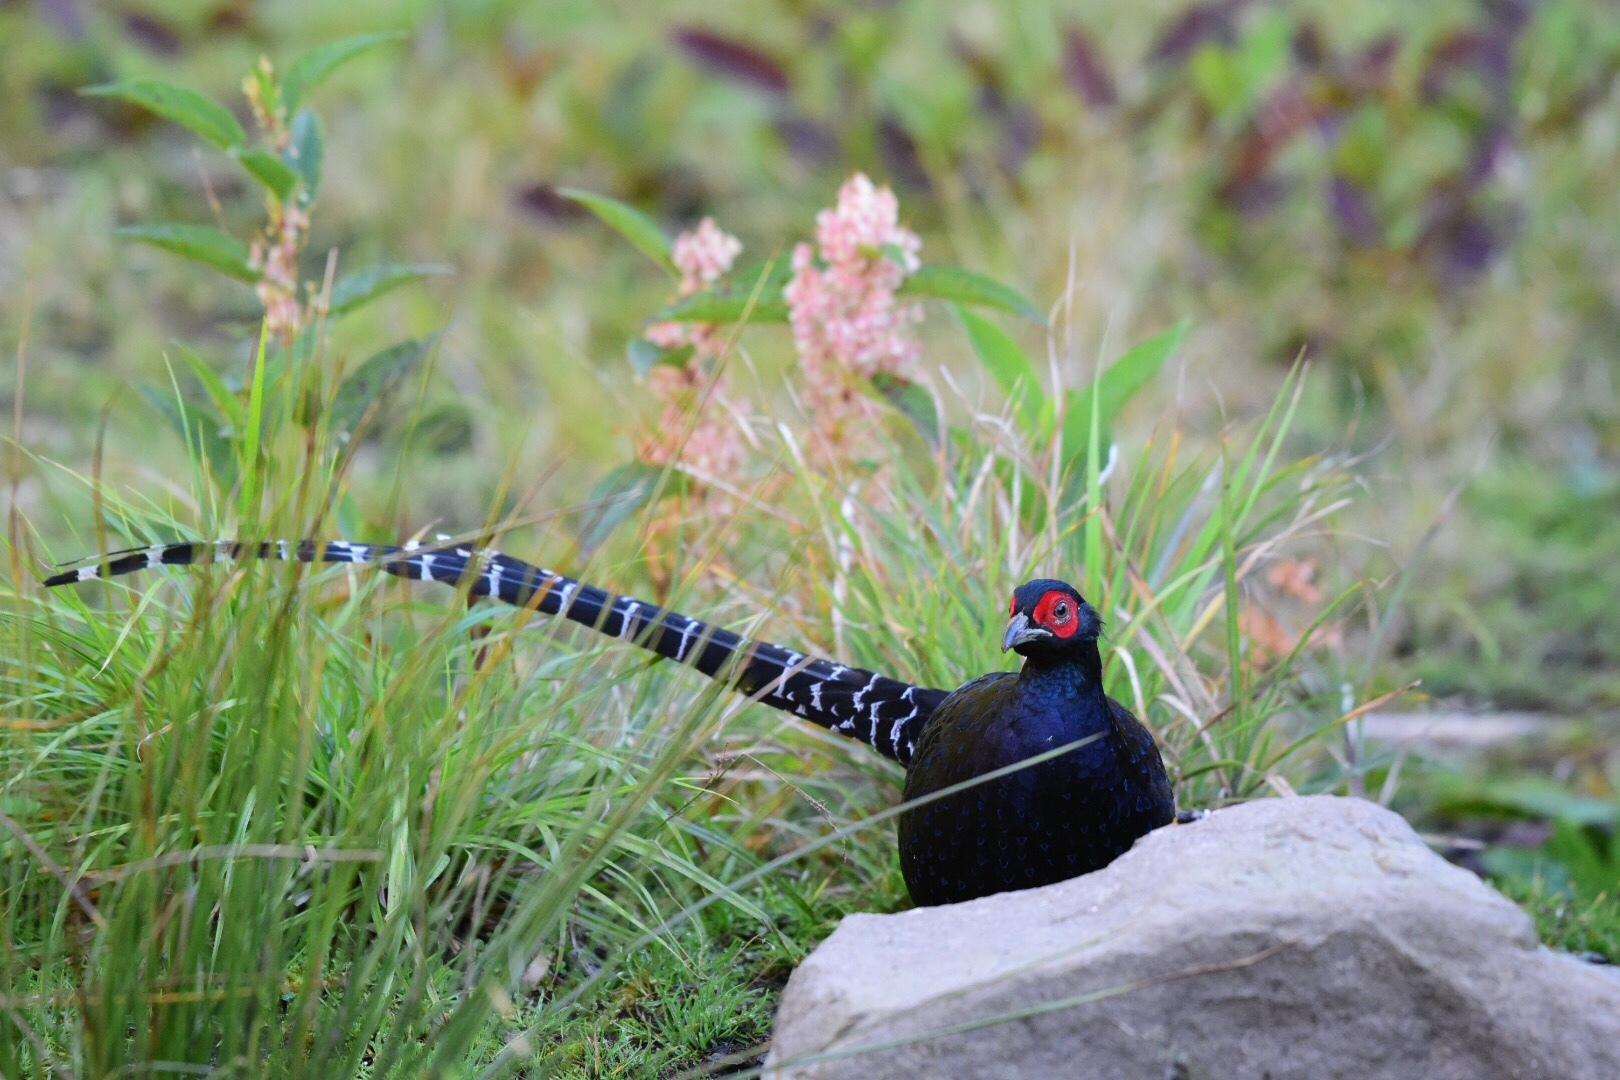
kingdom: Animalia
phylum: Chordata
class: Aves
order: Galliformes
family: Phasianidae
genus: Syrmaticus
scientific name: Syrmaticus mikado
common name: Mikado pheasant
